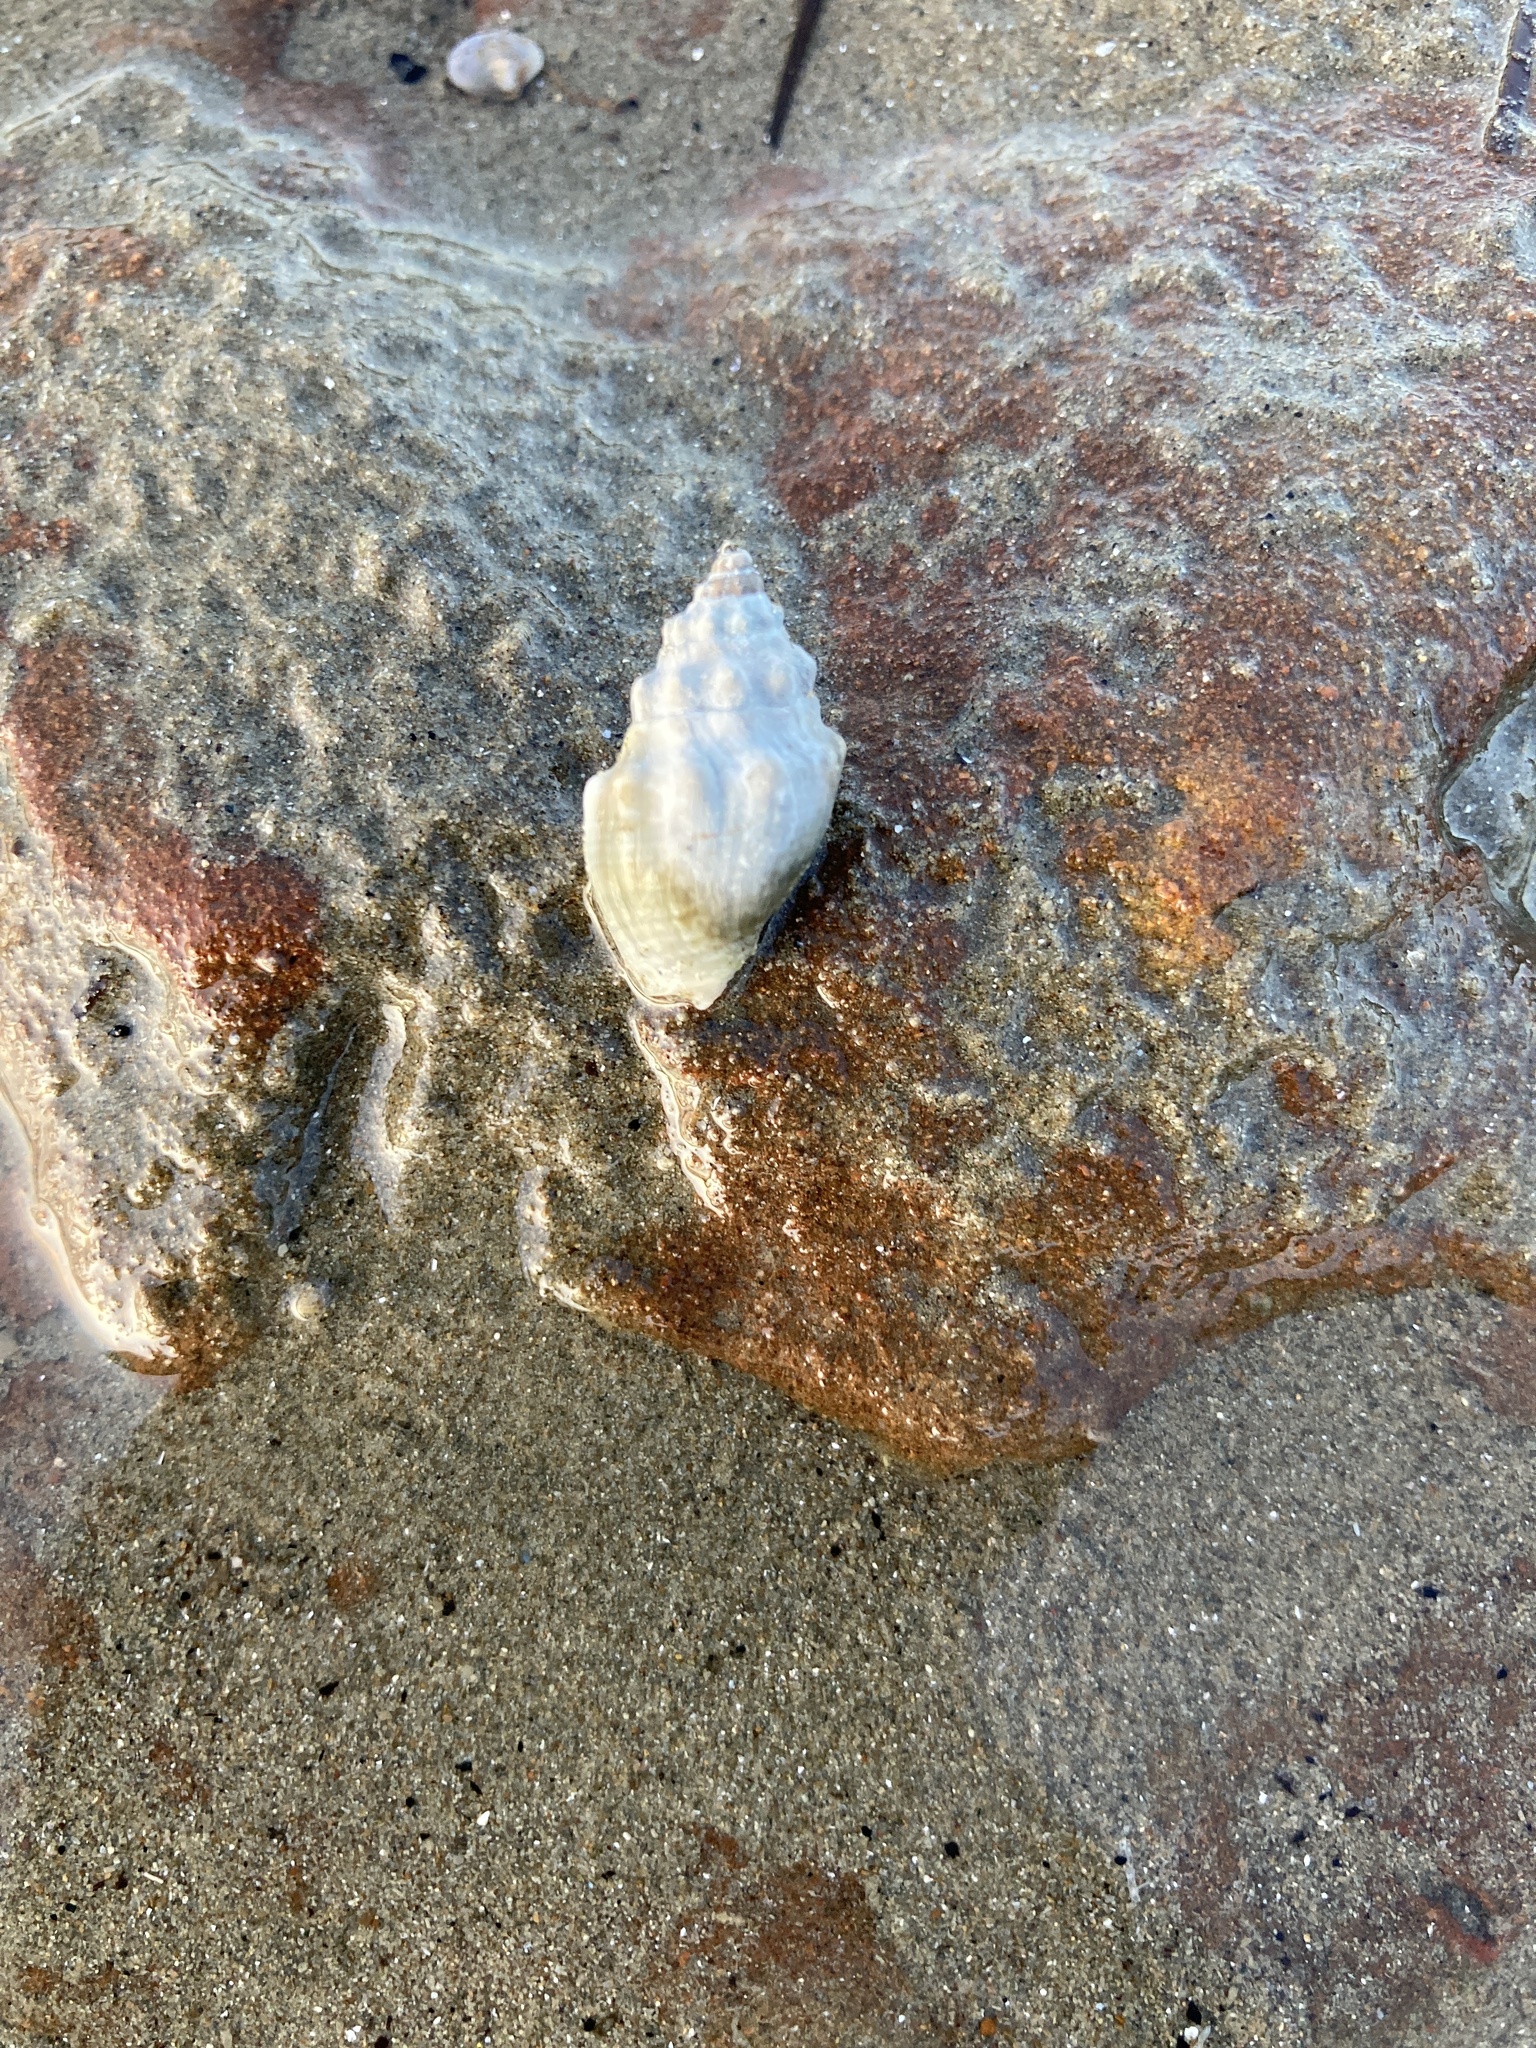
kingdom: Animalia
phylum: Mollusca
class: Gastropoda
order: Neogastropoda
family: Cominellidae
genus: Cominella
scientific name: Cominella glandiformis
